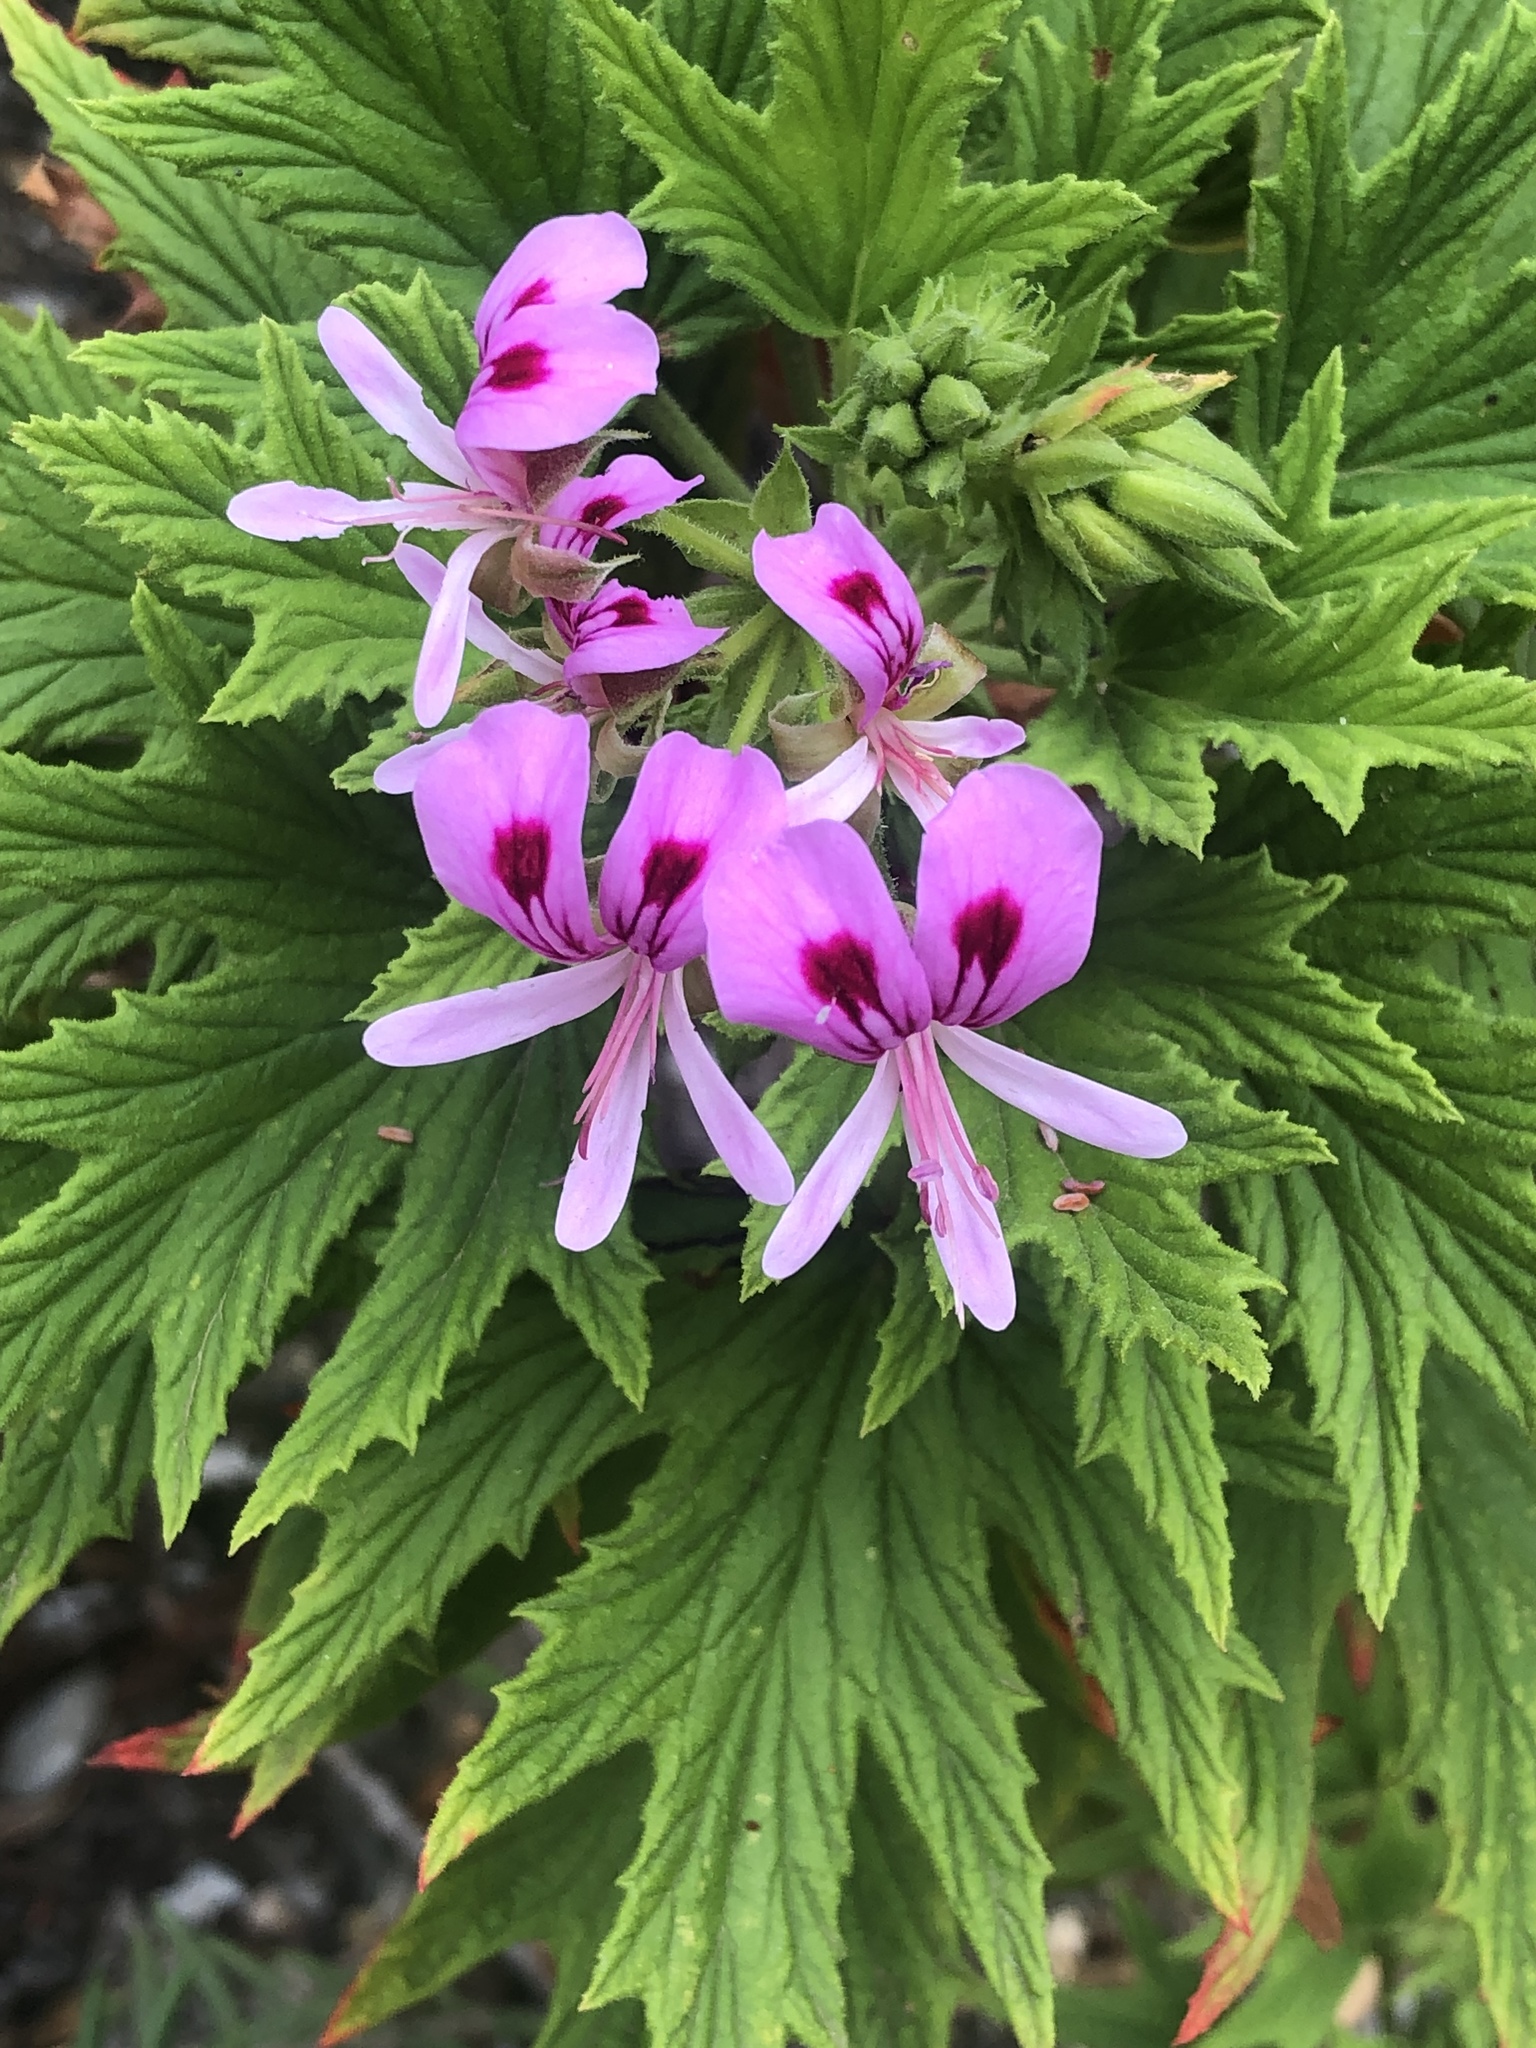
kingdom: Plantae
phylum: Tracheophyta
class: Magnoliopsida
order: Geraniales
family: Geraniaceae
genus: Pelargonium
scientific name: Pelargonium citronellum
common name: Lemon-scent pelargonium
